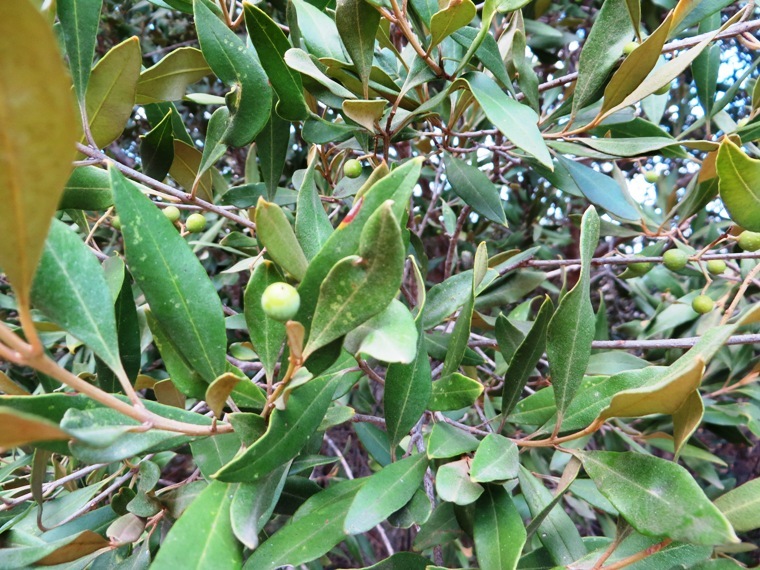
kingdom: Plantae
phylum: Tracheophyta
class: Magnoliopsida
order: Lamiales
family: Oleaceae
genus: Olea
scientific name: Olea europaea
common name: Olive
